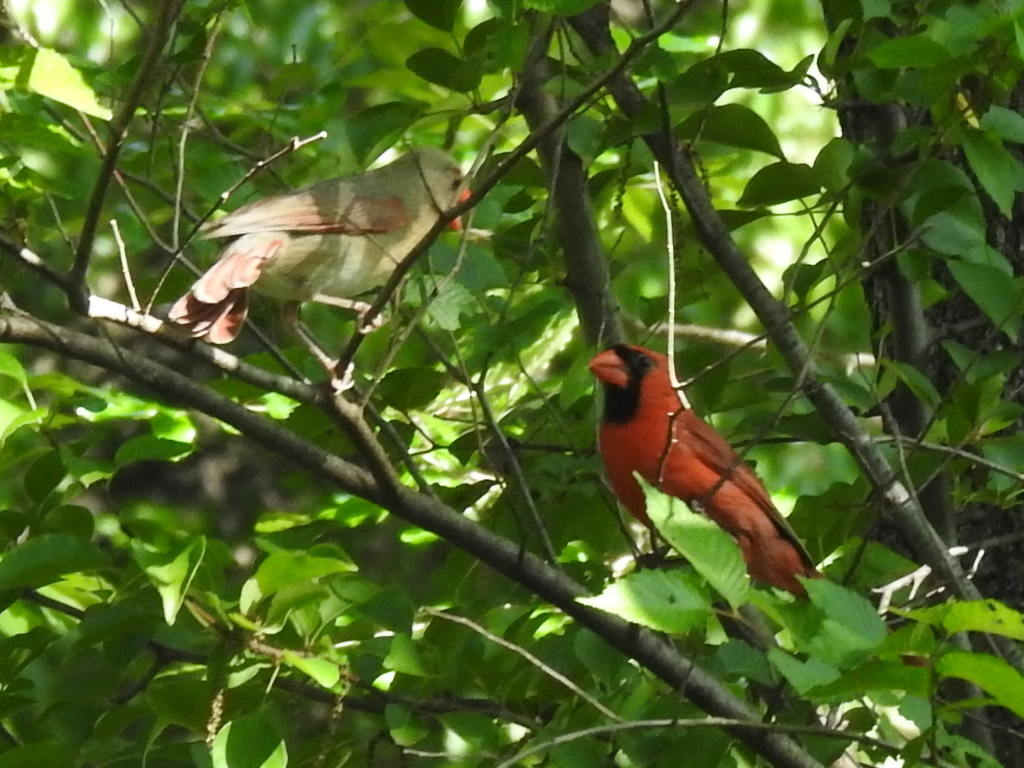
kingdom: Animalia
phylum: Chordata
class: Aves
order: Passeriformes
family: Cardinalidae
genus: Cardinalis
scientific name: Cardinalis cardinalis
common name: Northern cardinal
